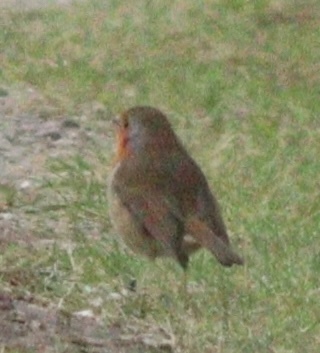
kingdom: Animalia
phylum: Chordata
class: Aves
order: Passeriformes
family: Muscicapidae
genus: Erithacus
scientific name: Erithacus rubecula
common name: European robin
